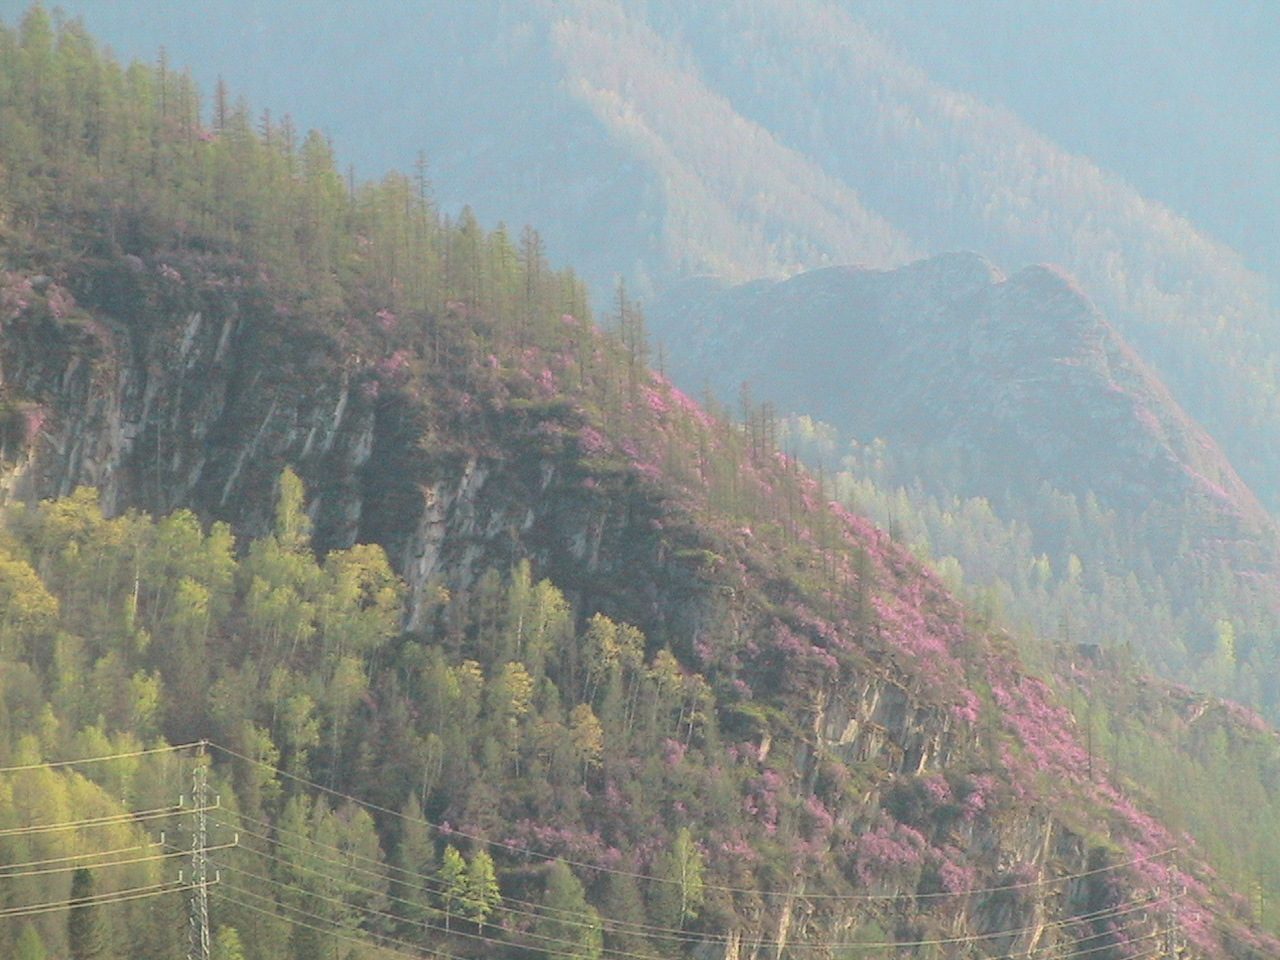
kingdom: Plantae
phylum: Tracheophyta
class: Pinopsida
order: Pinales
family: Pinaceae
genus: Larix
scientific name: Larix sibirica
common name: Siberian larch
